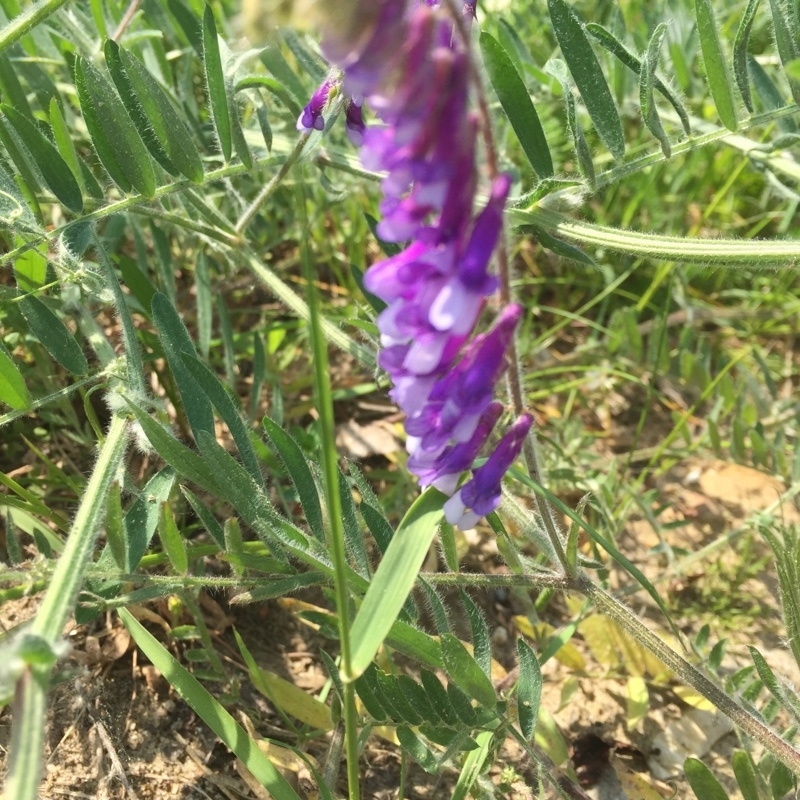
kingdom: Plantae
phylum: Tracheophyta
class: Magnoliopsida
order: Fabales
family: Fabaceae
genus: Vicia
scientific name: Vicia villosa
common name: Fodder vetch
